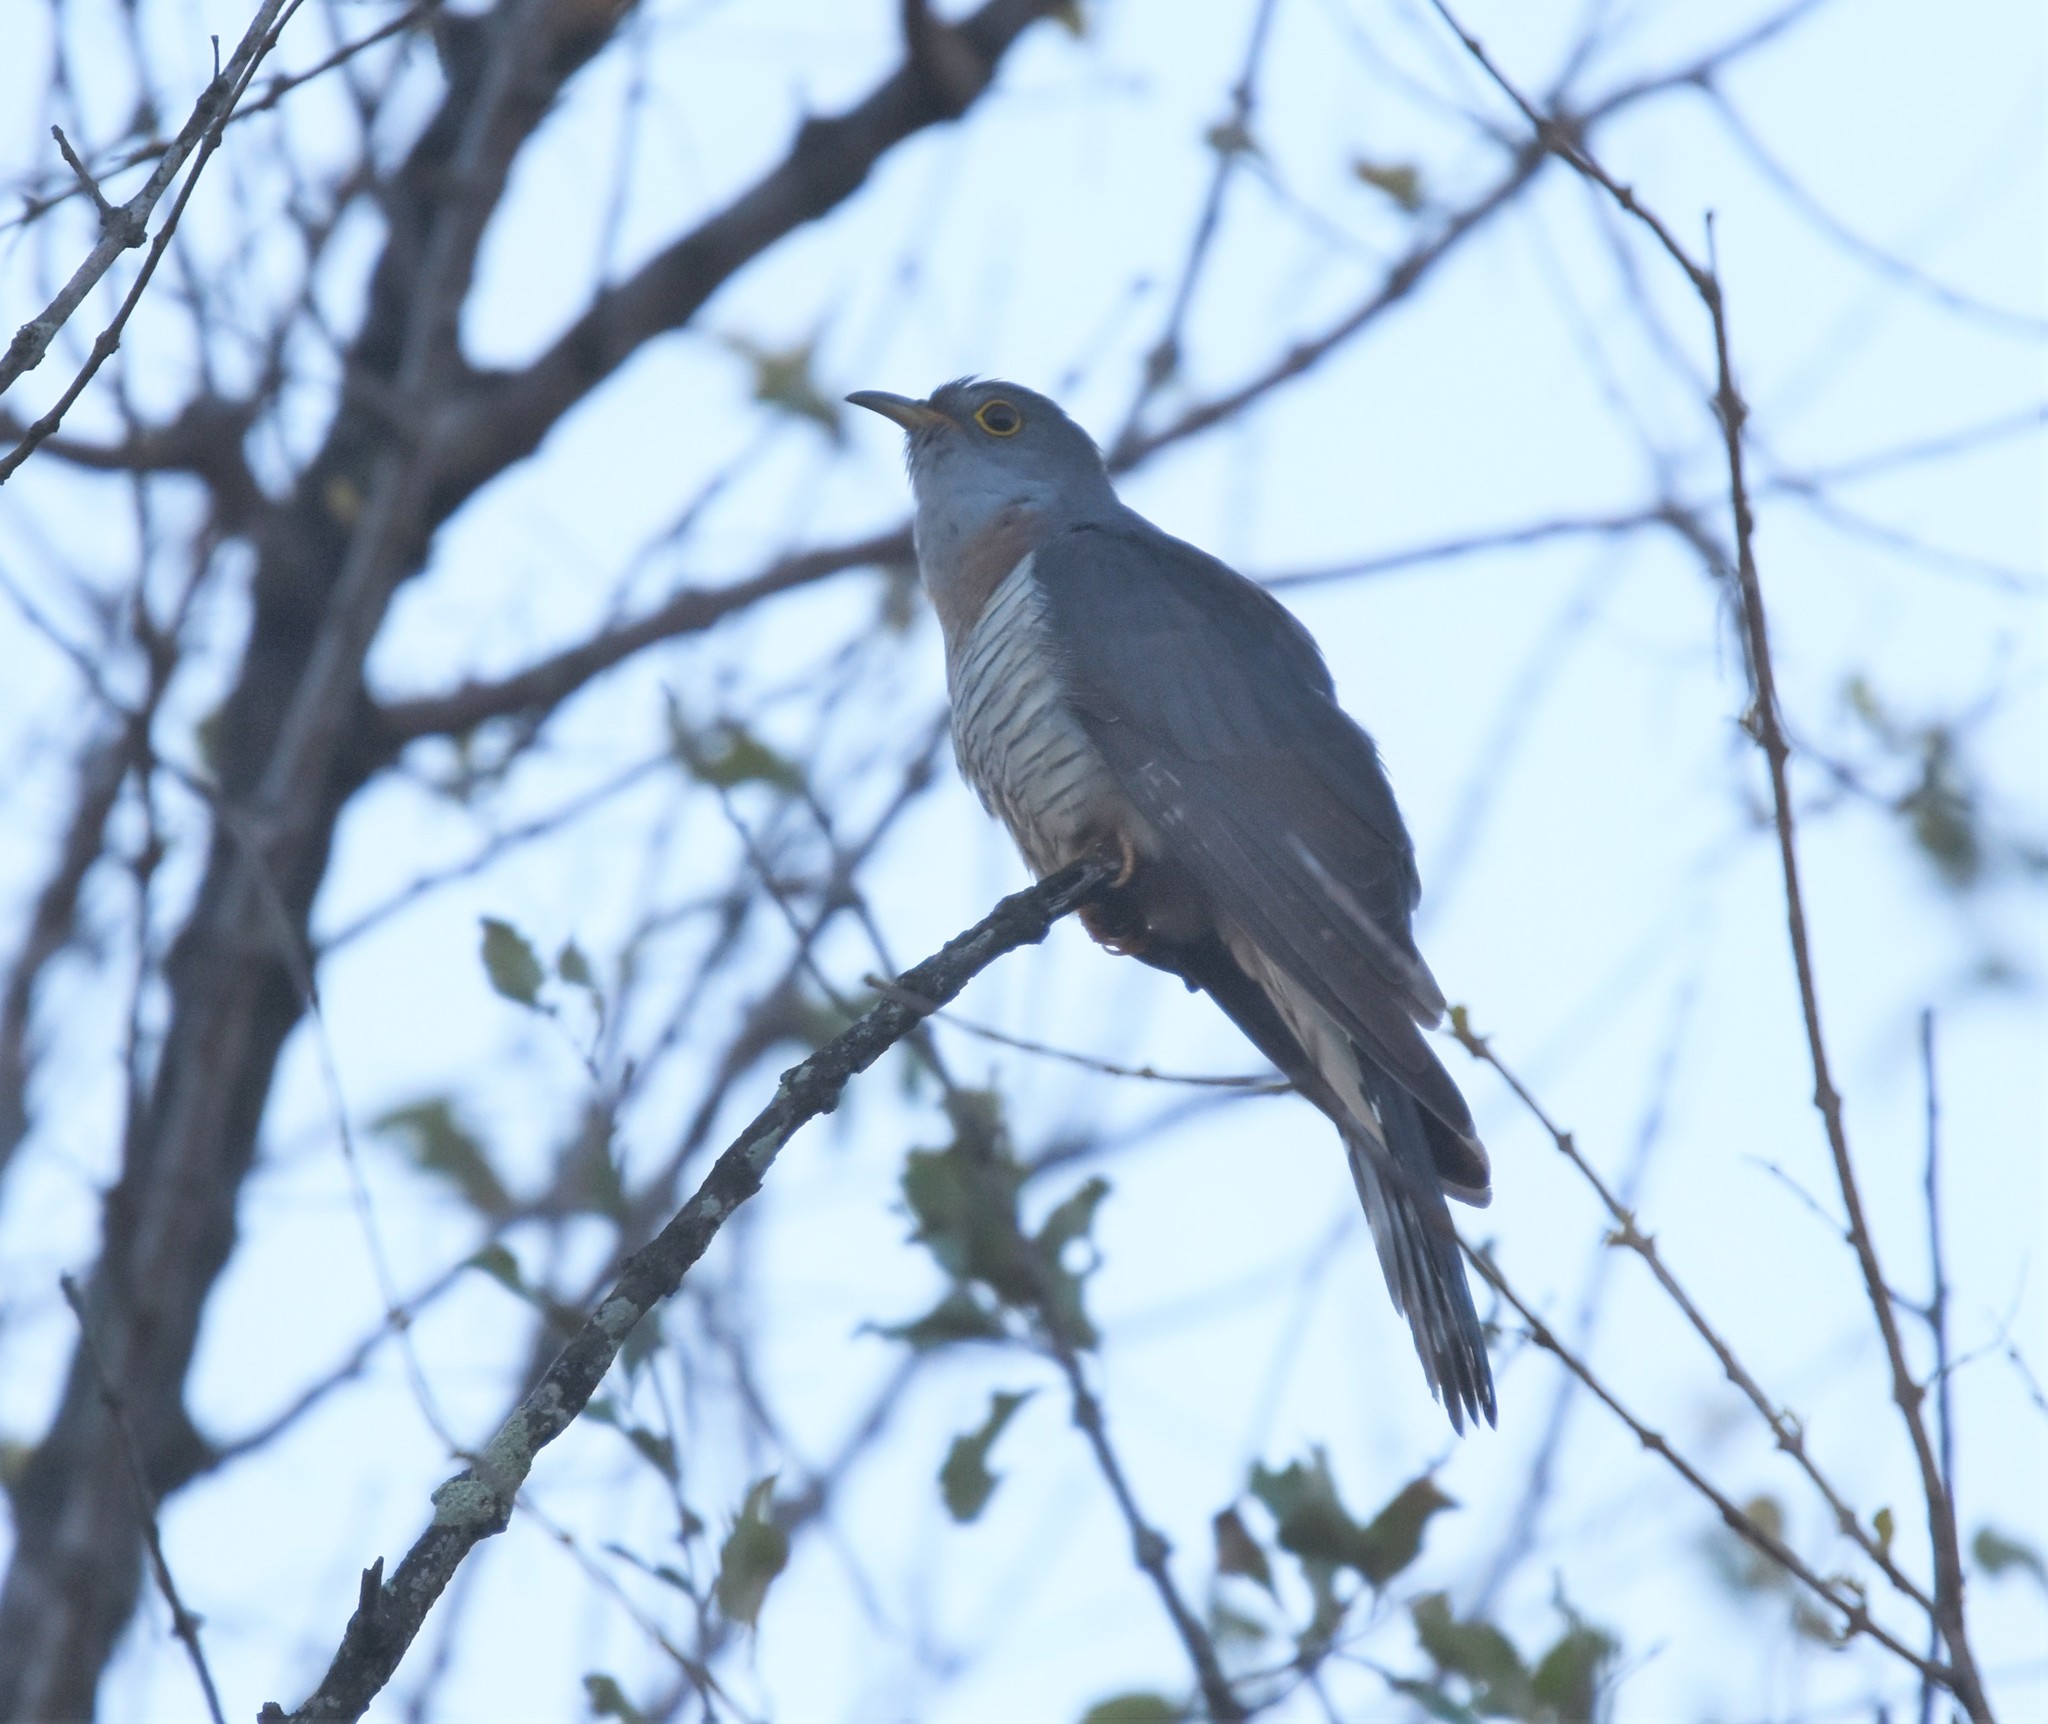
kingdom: Animalia
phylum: Chordata
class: Aves
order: Cuculiformes
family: Cuculidae
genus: Cuculus
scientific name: Cuculus solitarius
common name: Red-chested cuckoo
